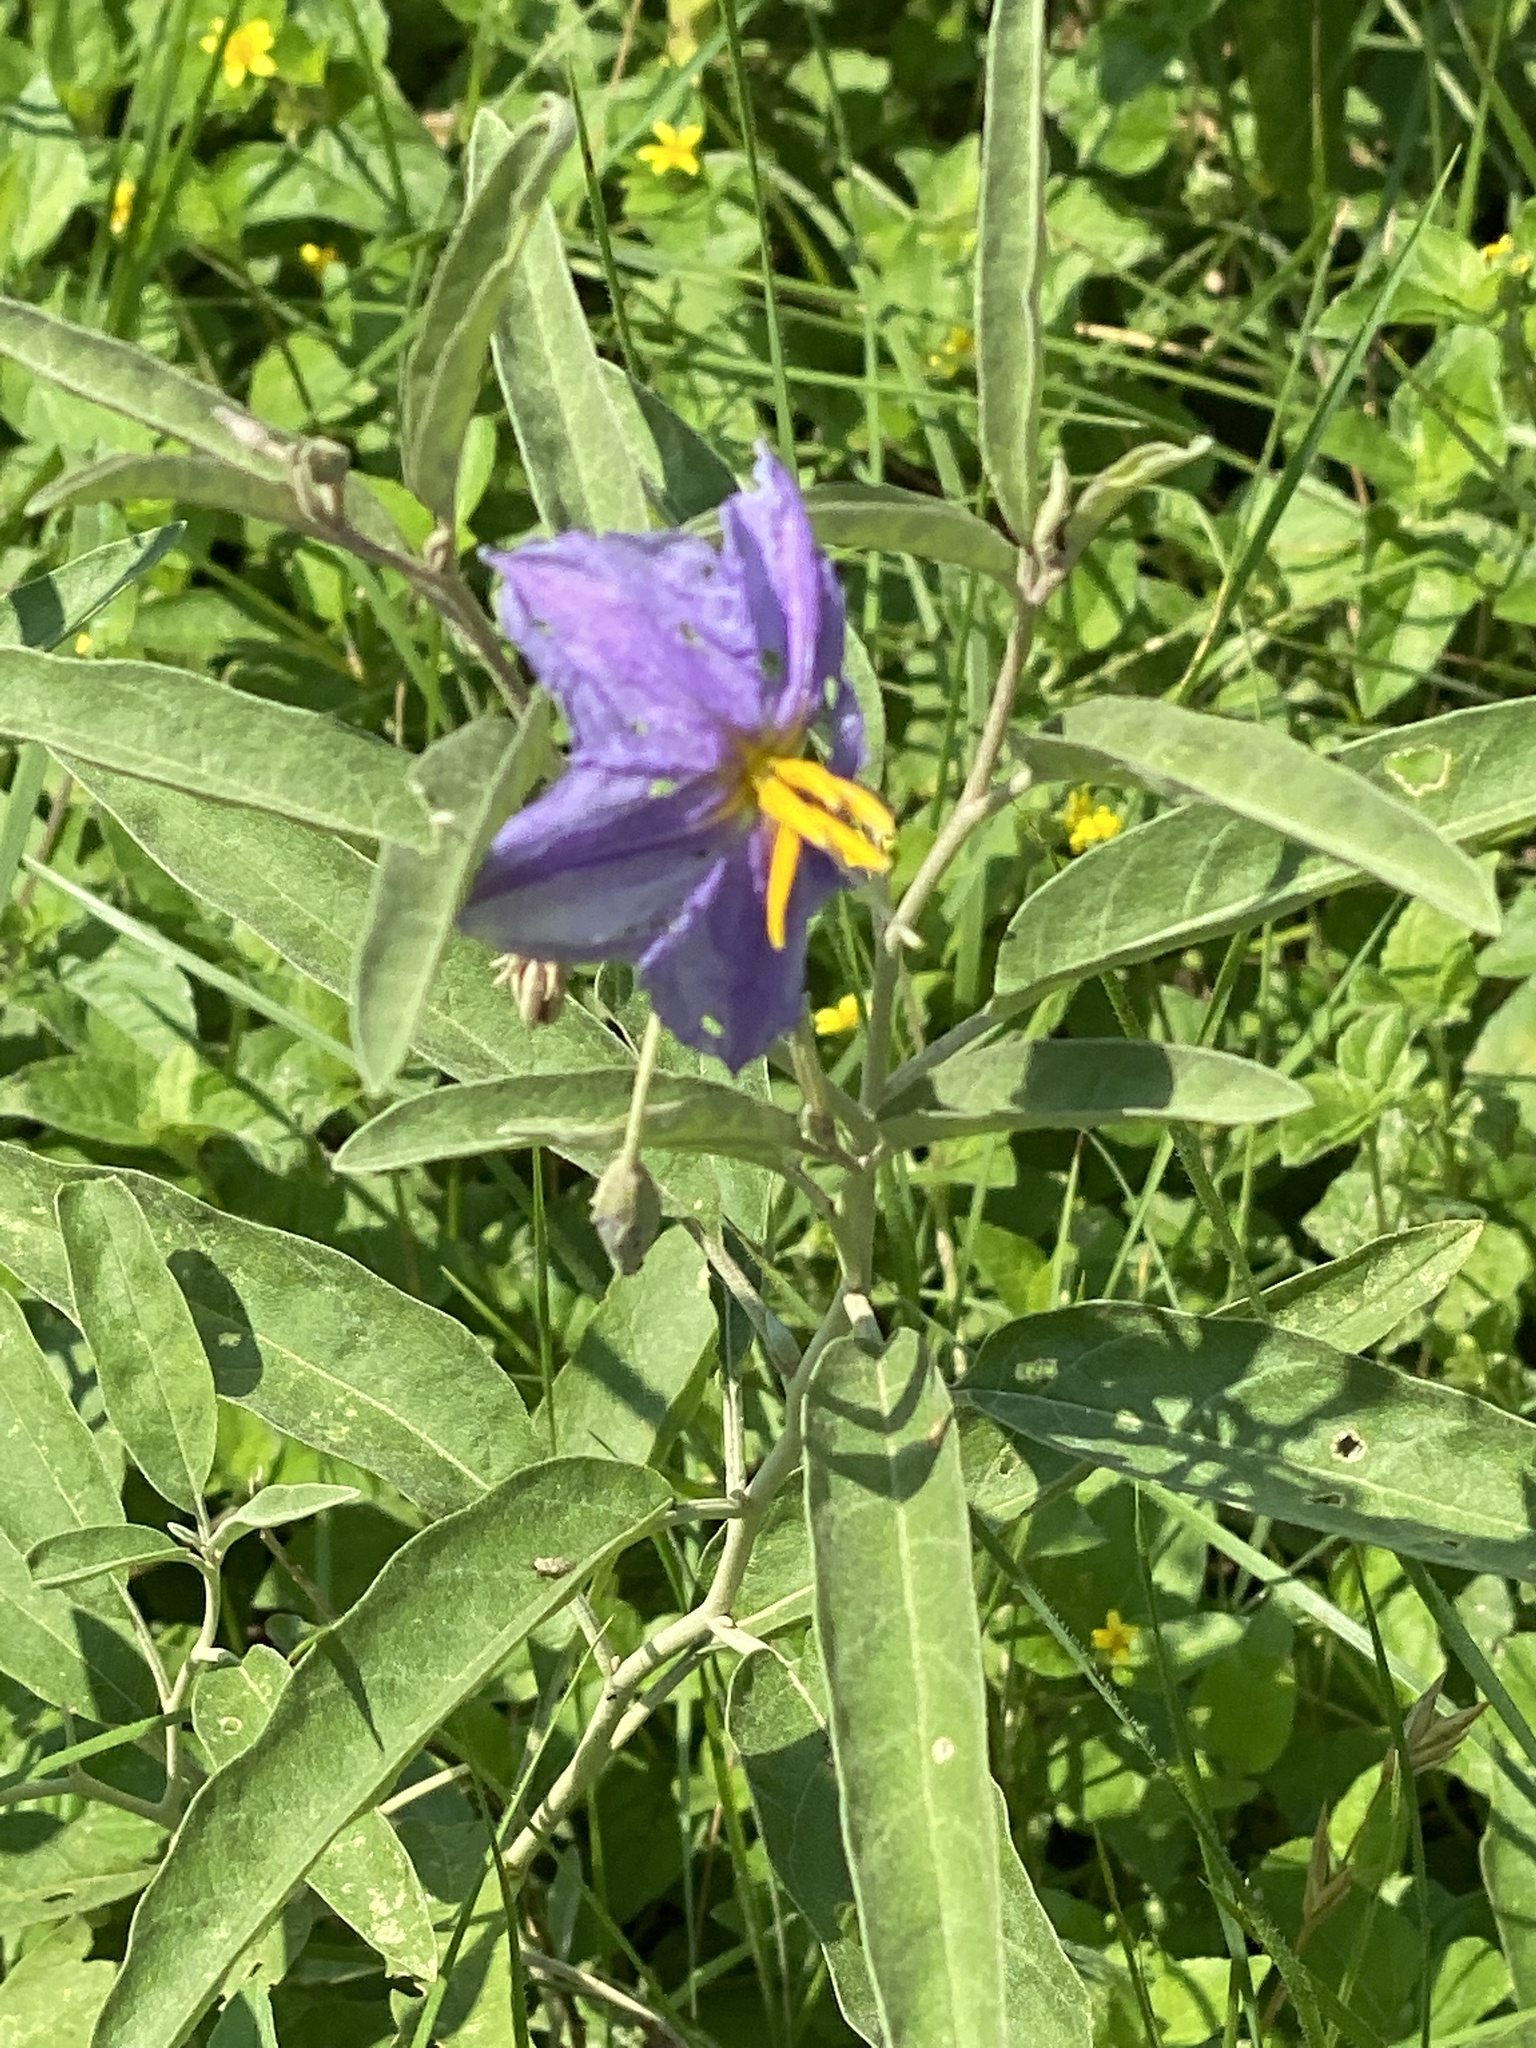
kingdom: Plantae
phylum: Tracheophyta
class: Magnoliopsida
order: Solanales
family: Solanaceae
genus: Solanum
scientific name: Solanum elaeagnifolium
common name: Silverleaf nightshade
